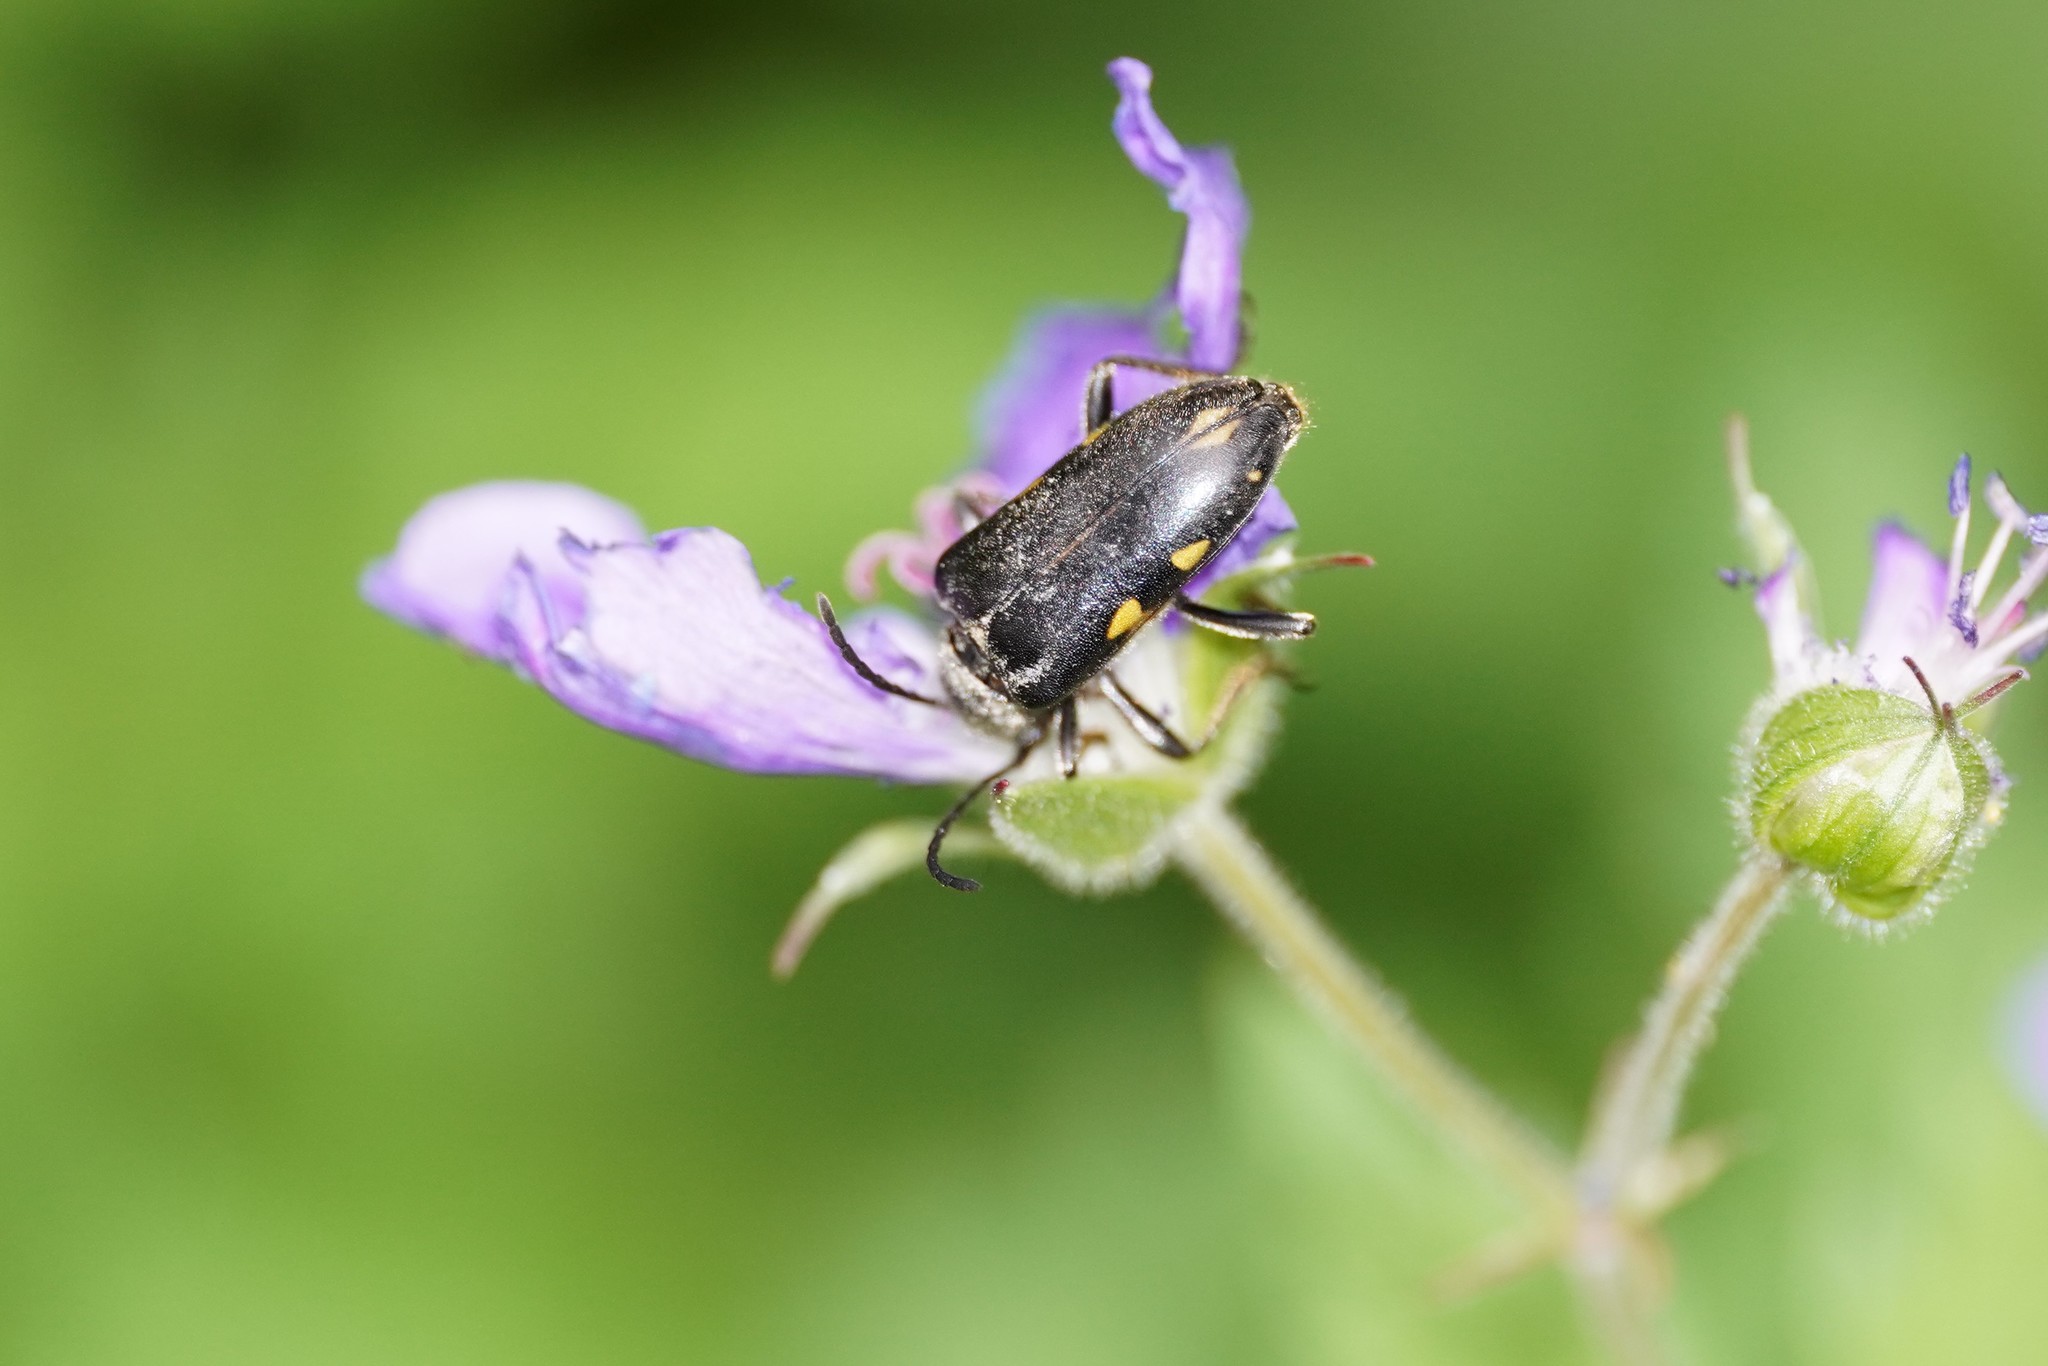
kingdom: Animalia
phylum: Arthropoda
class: Insecta
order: Coleoptera
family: Cerambycidae
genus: Brachyta
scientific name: Brachyta interrogationis
